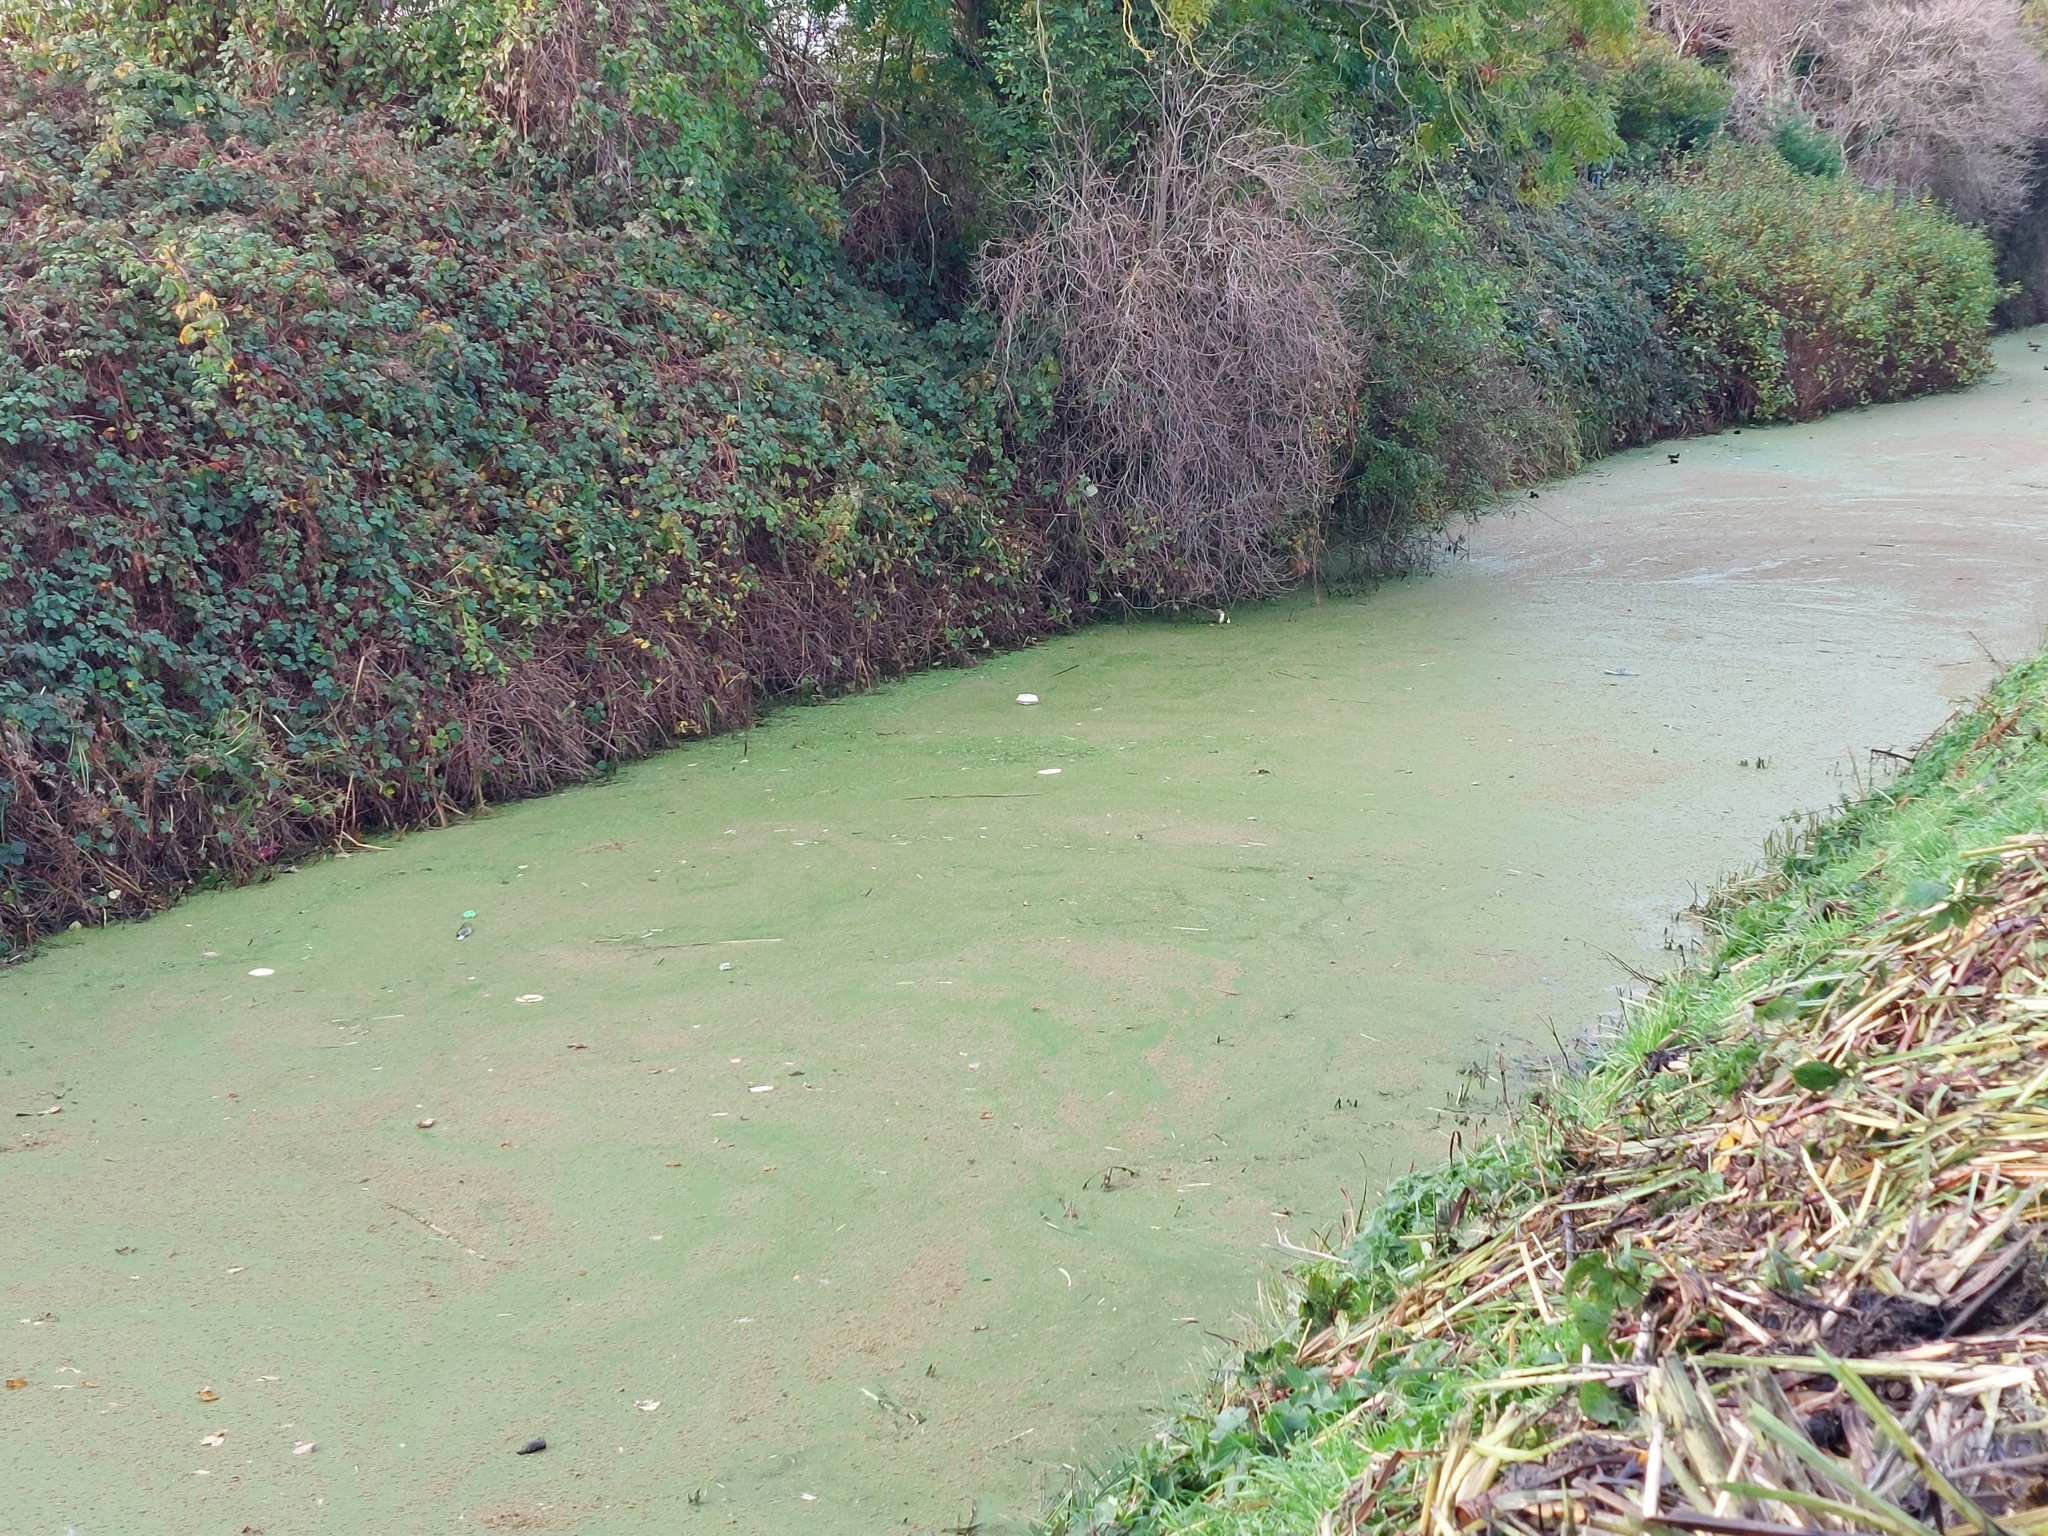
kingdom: Plantae
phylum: Tracheophyta
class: Polypodiopsida
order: Salviniales
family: Salviniaceae
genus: Azolla
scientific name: Azolla filiculoides
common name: Water fern
